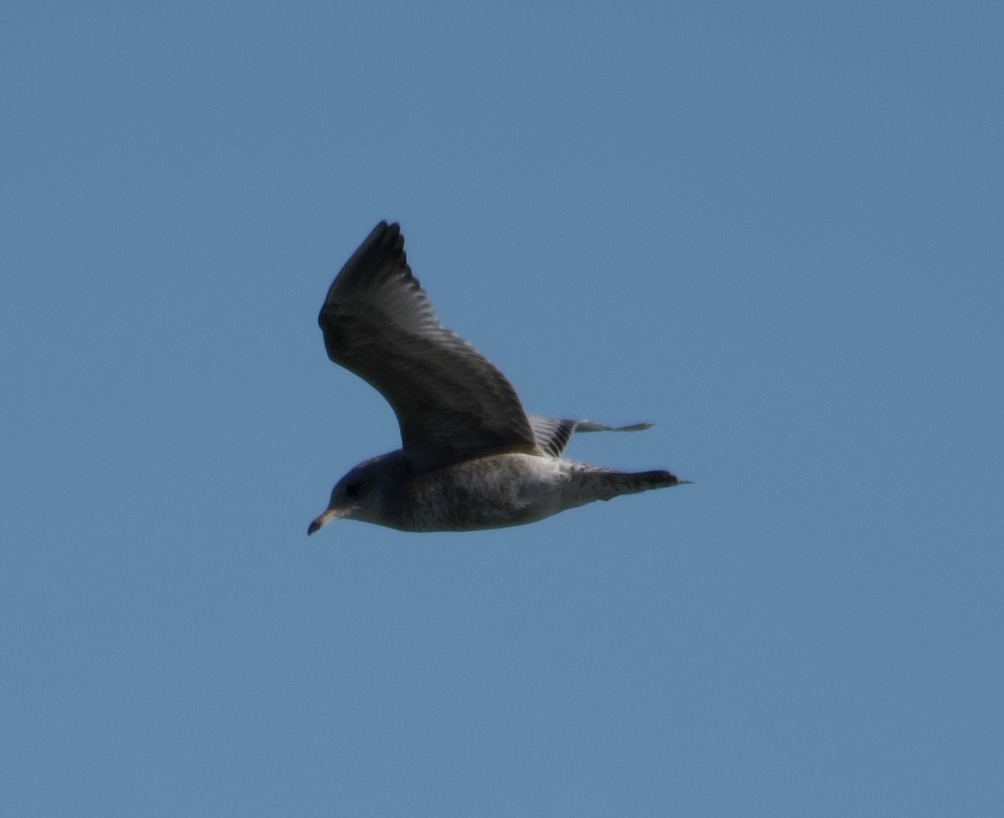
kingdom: Animalia
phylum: Chordata
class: Aves
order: Charadriiformes
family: Laridae
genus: Larus
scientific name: Larus brachyrhynchus
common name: Short-billed gull
